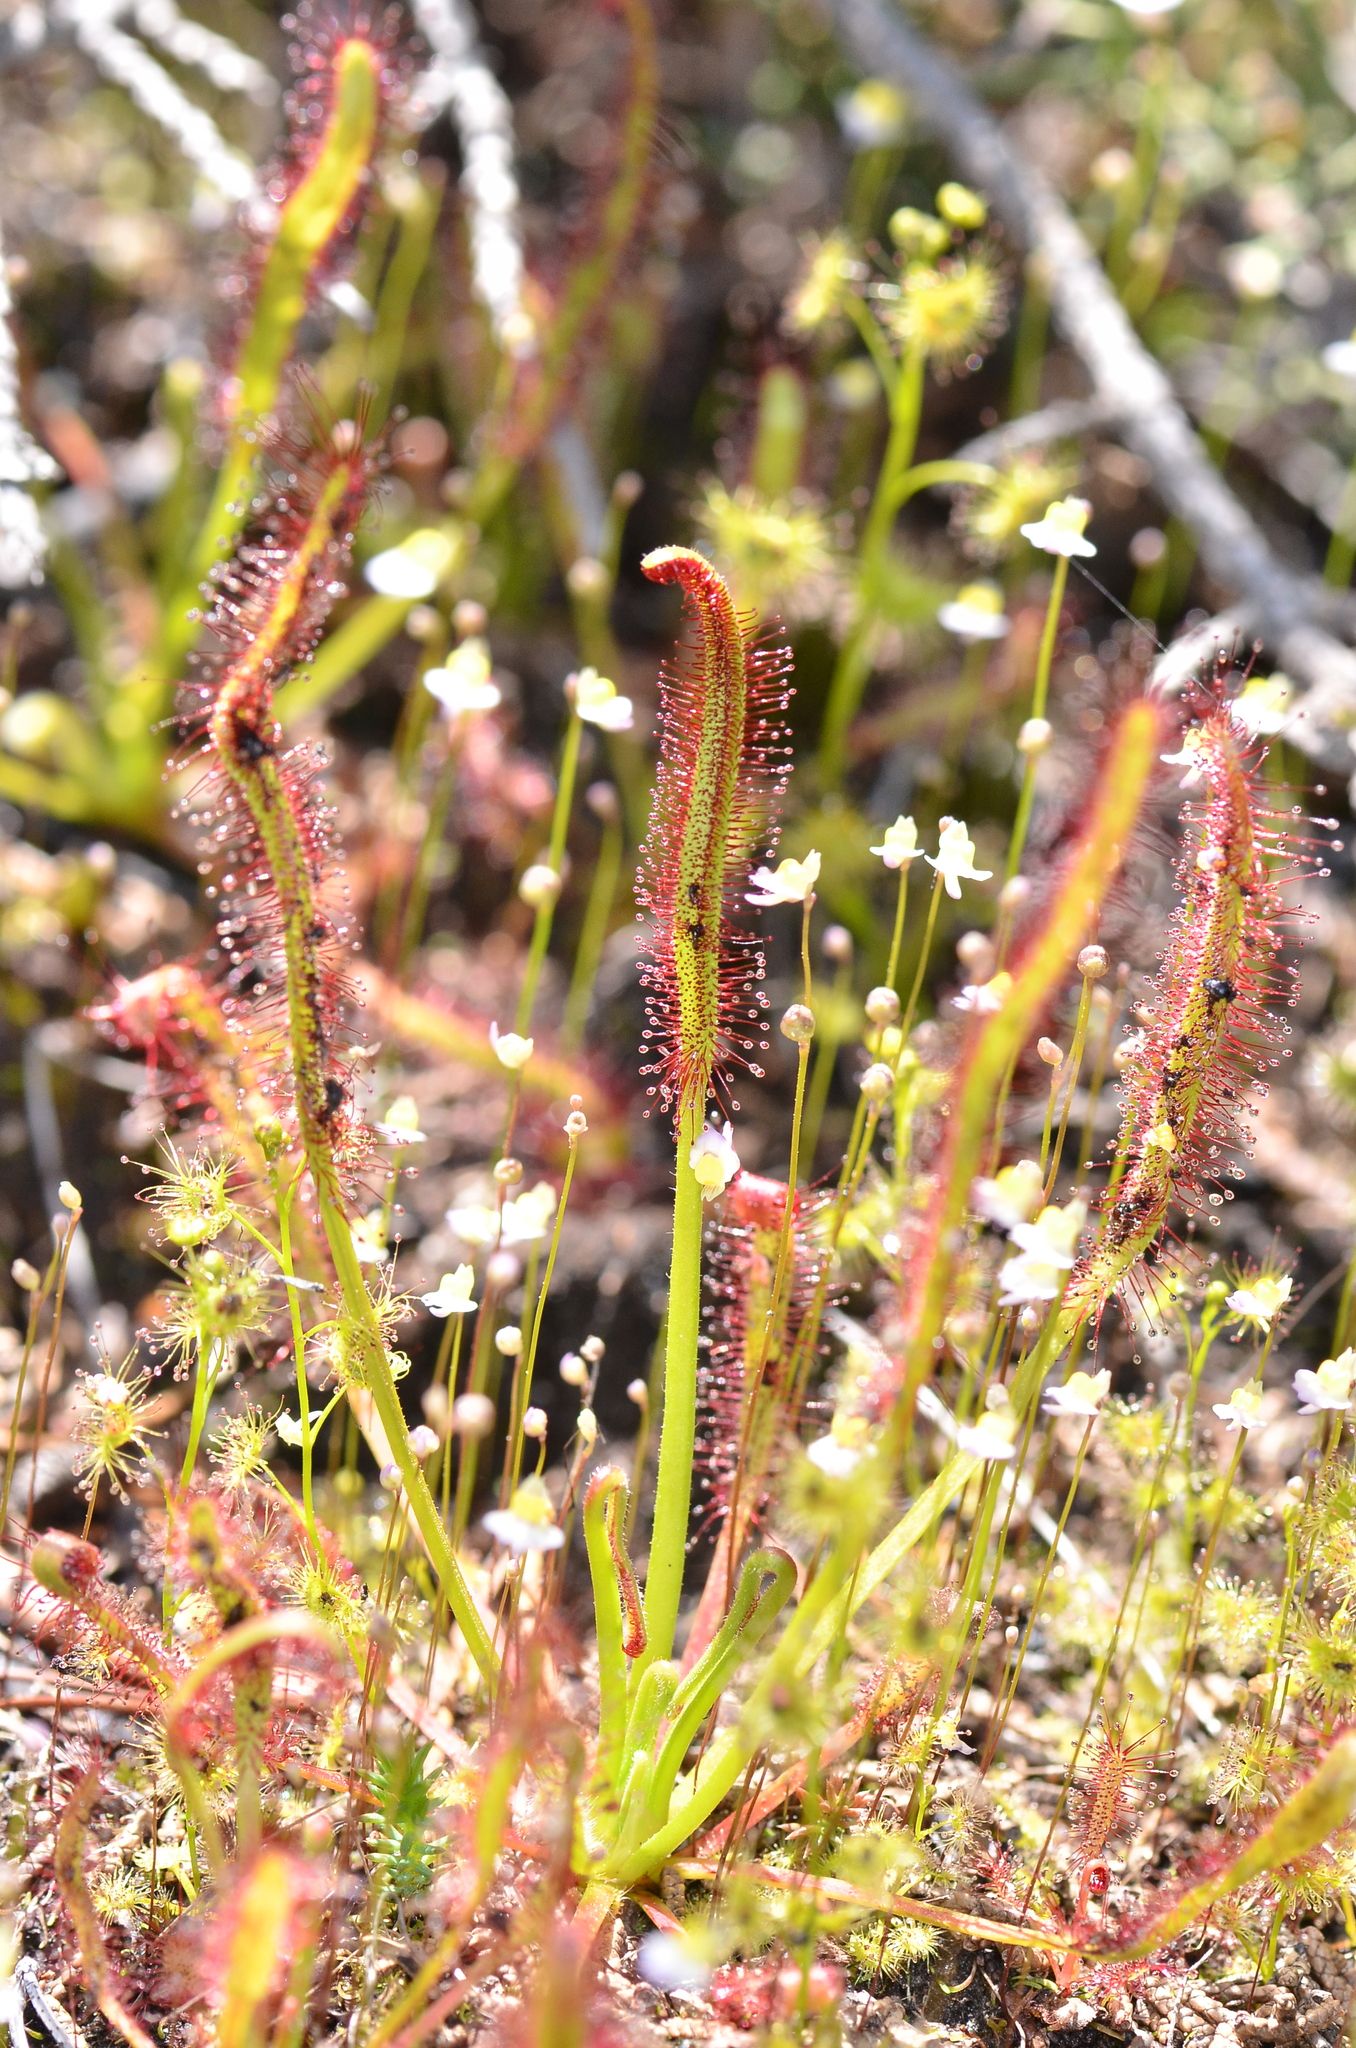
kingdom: Plantae
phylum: Tracheophyta
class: Magnoliopsida
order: Caryophyllales
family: Droseraceae
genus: Drosera
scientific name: Drosera capensis
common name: Cape sundew
